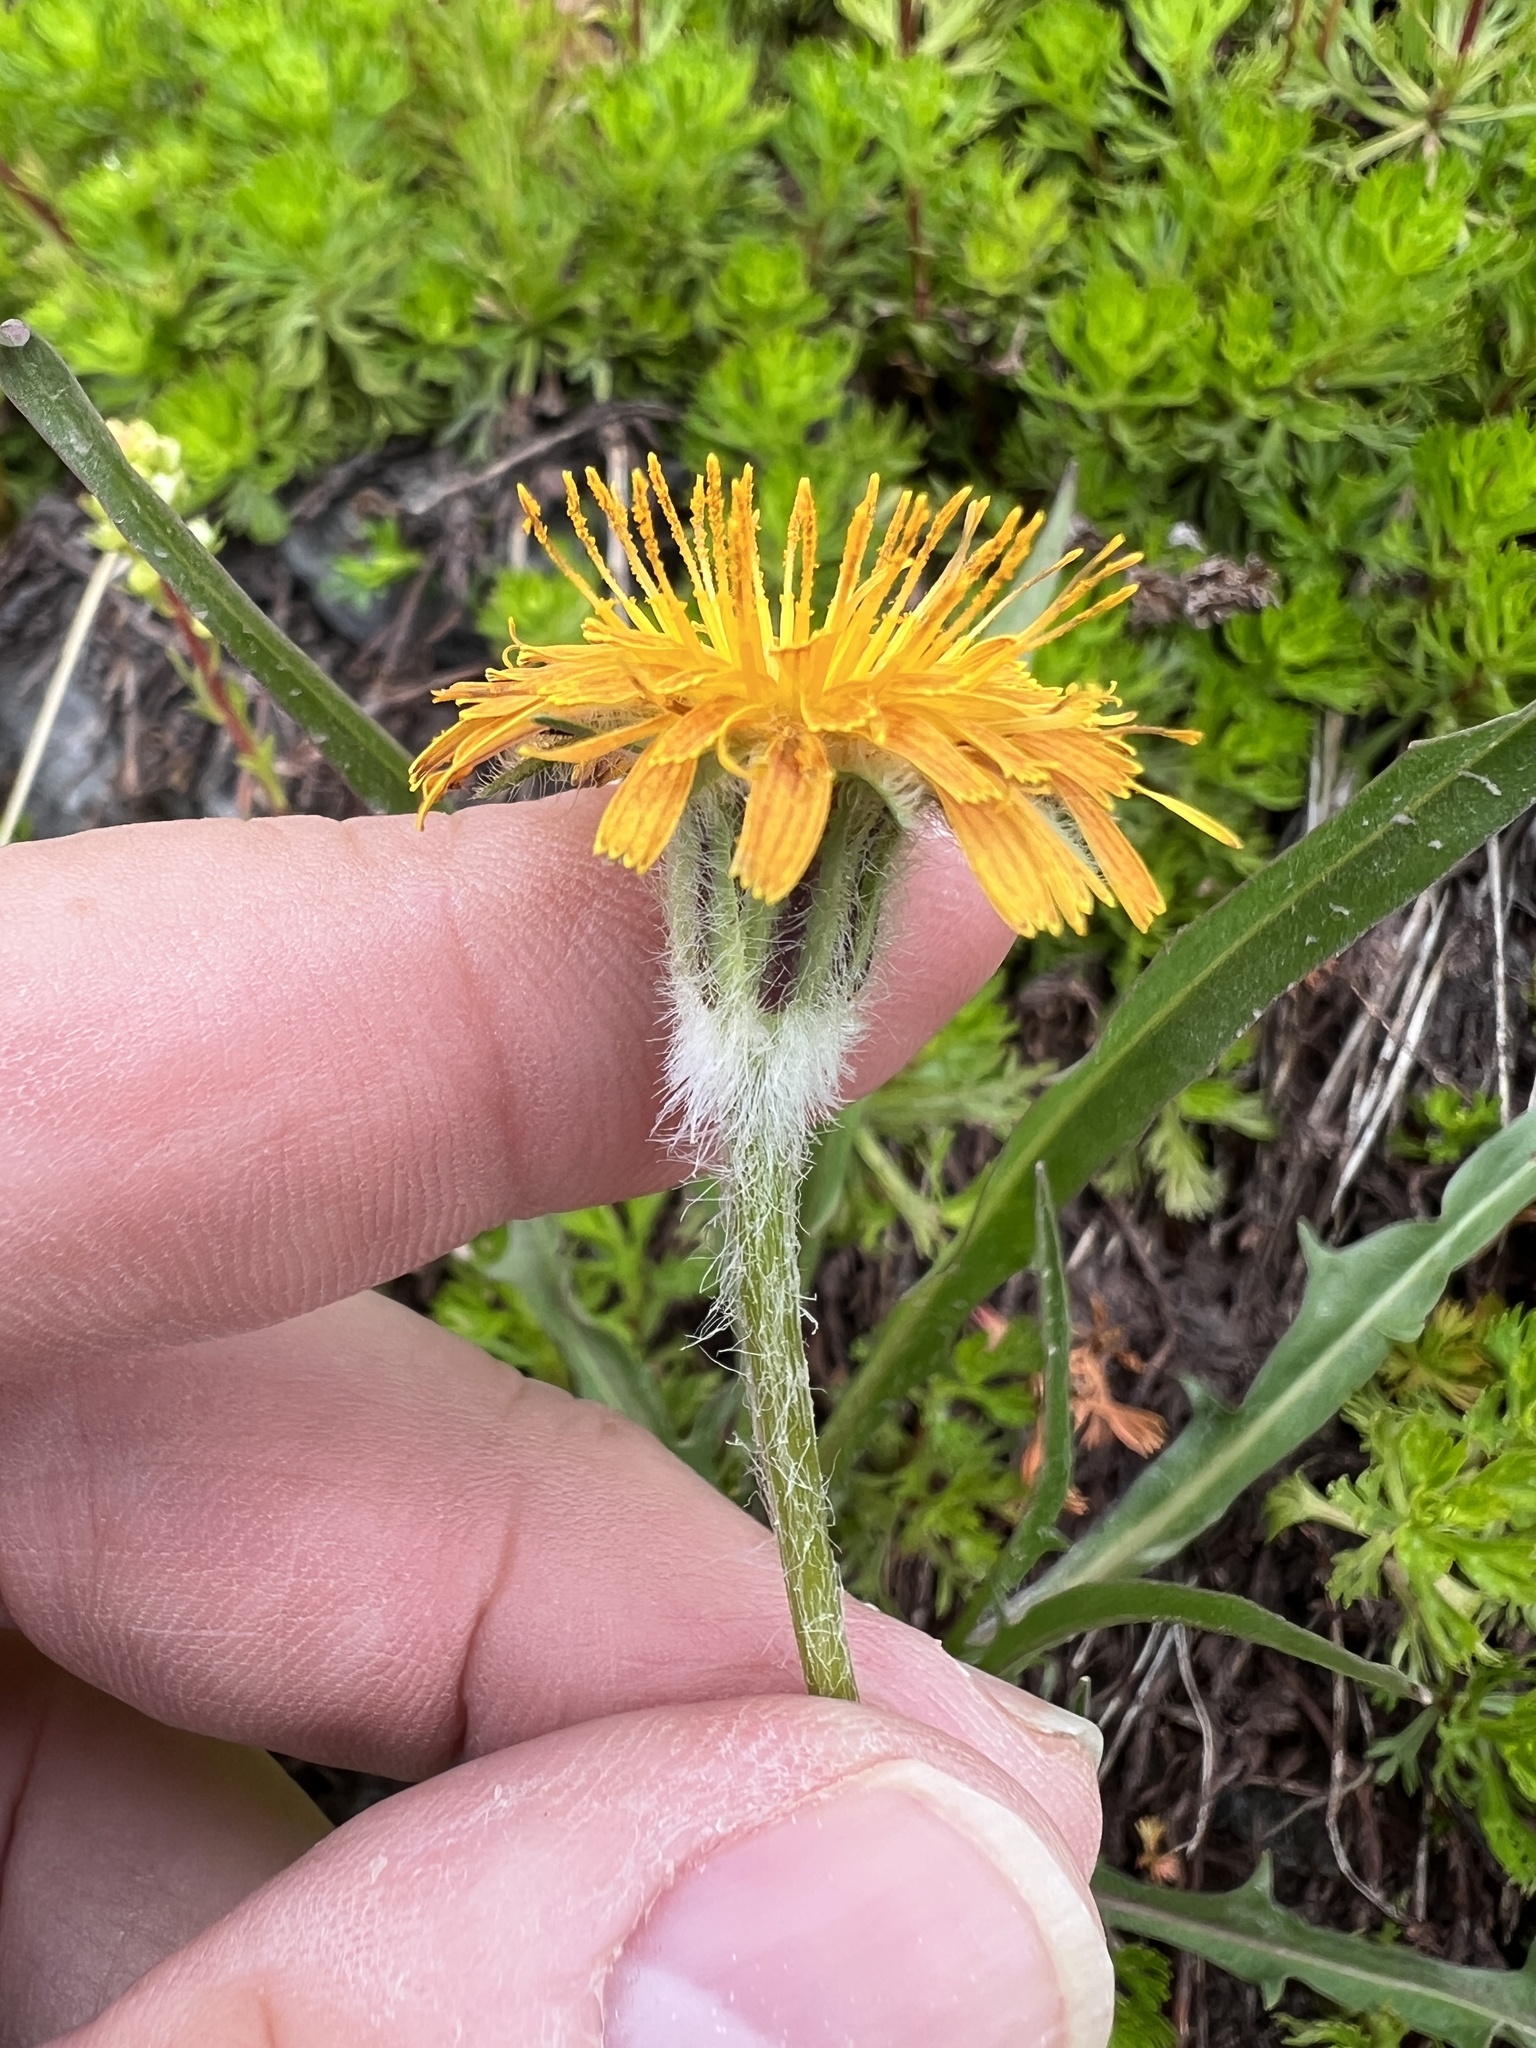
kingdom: Plantae
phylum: Tracheophyta
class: Magnoliopsida
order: Asterales
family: Asteraceae
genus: Agoseris
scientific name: Agoseris aurantiaca
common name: Mountain agoseris
